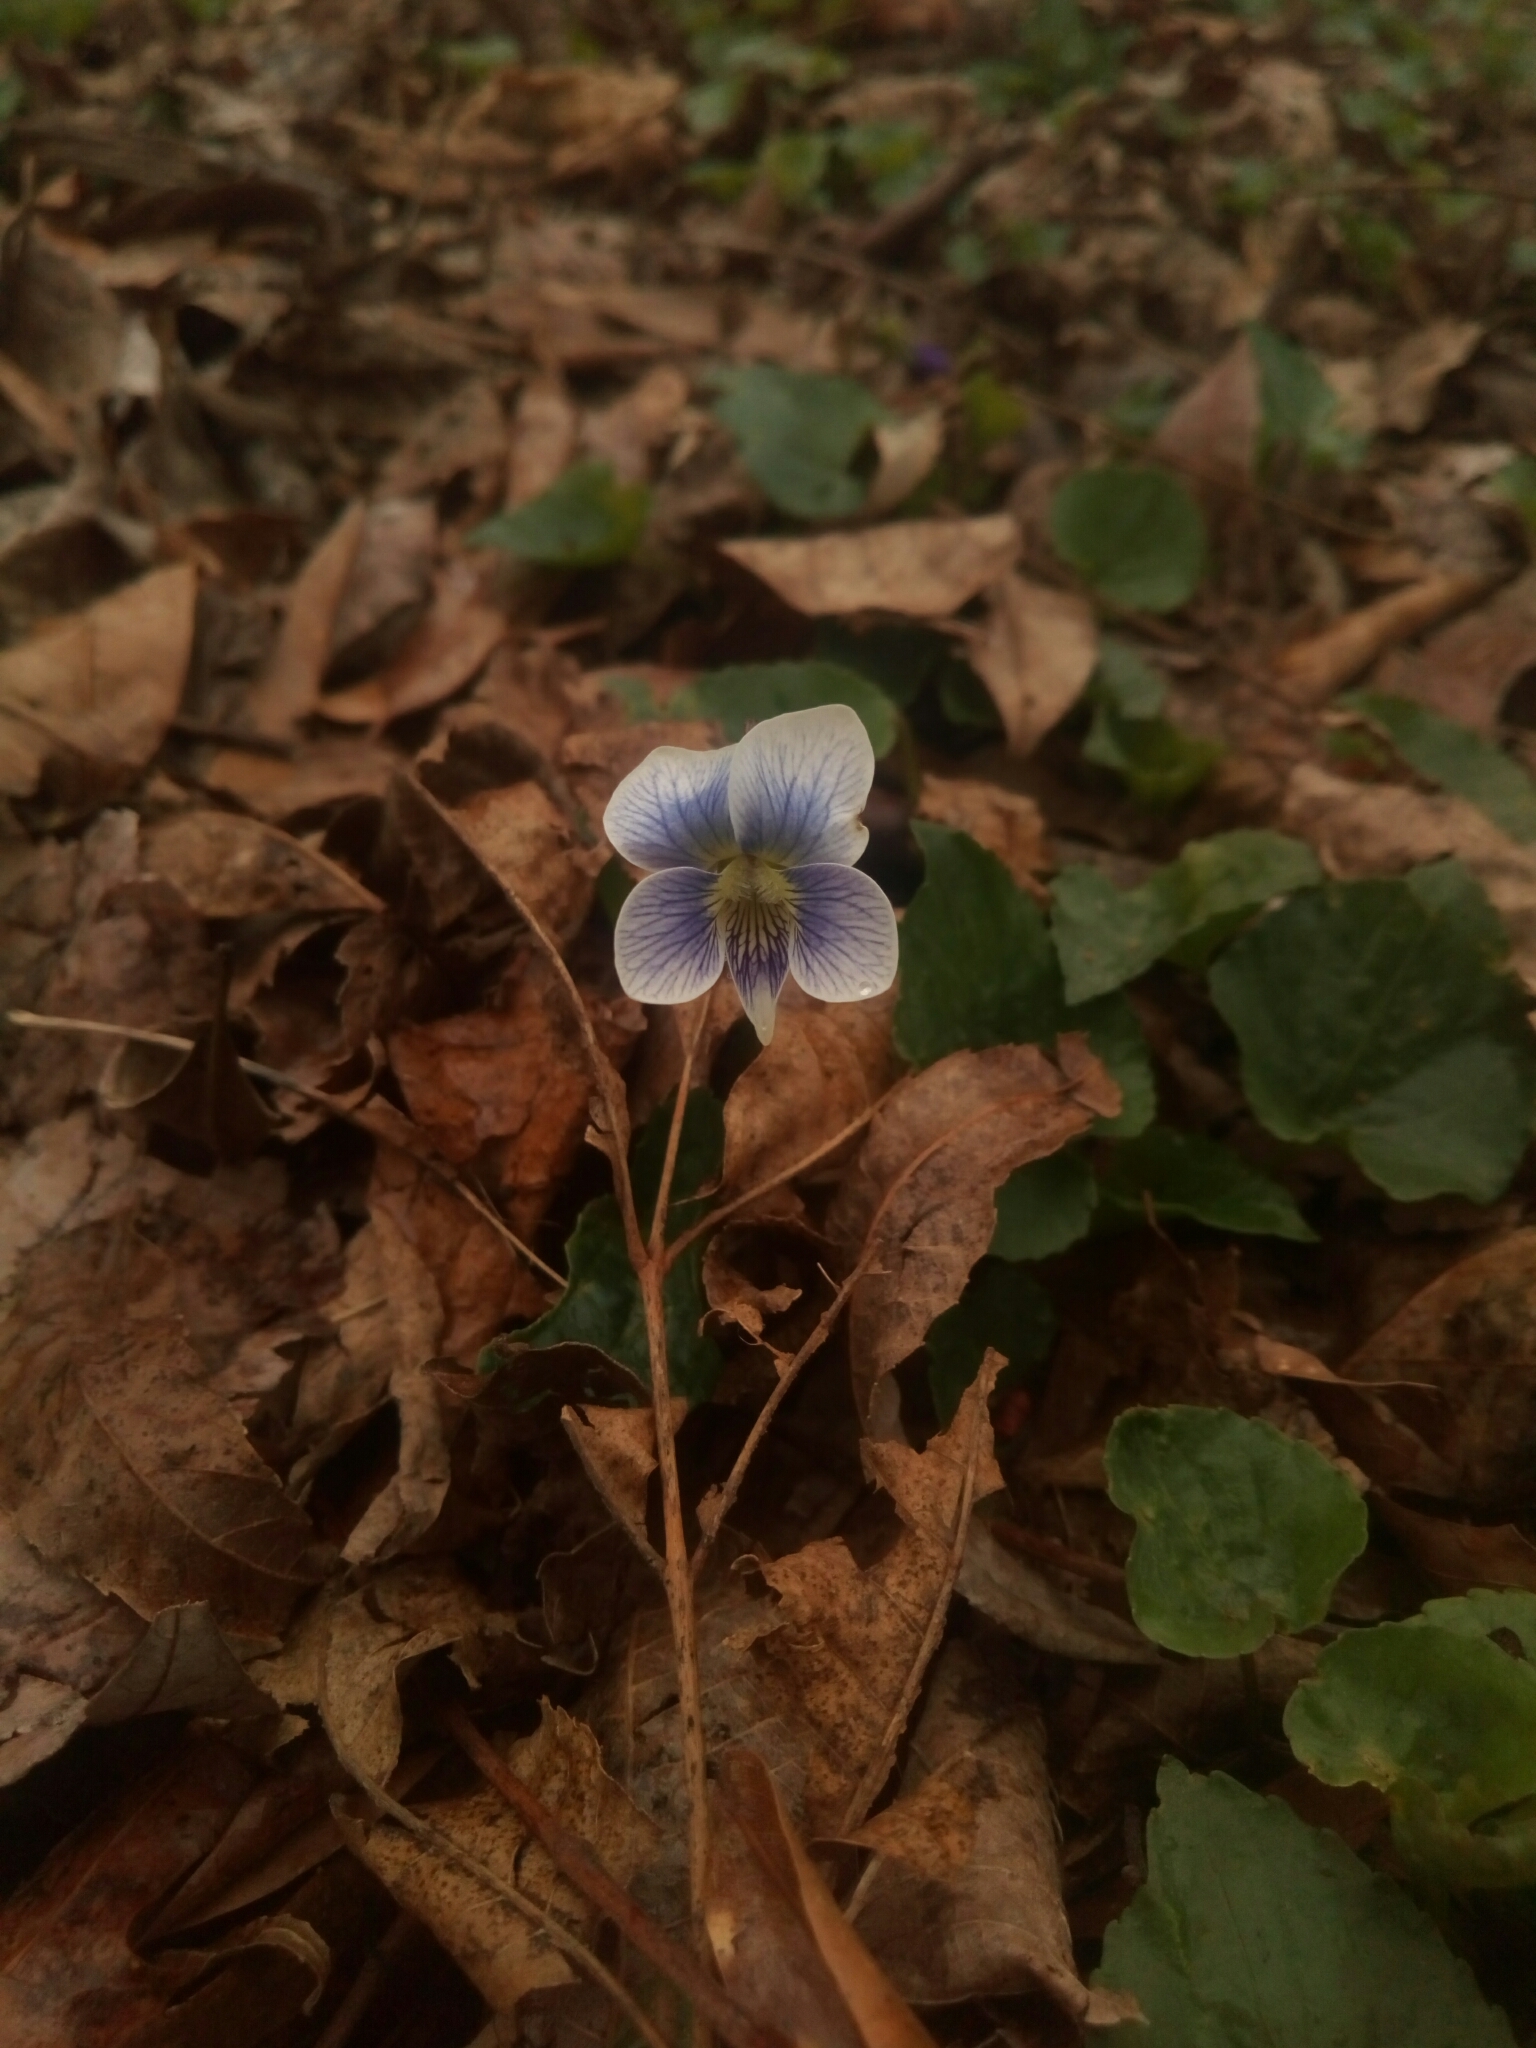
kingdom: Plantae
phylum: Tracheophyta
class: Magnoliopsida
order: Malpighiales
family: Violaceae
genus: Viola
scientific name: Viola sororia
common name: Dooryard violet
